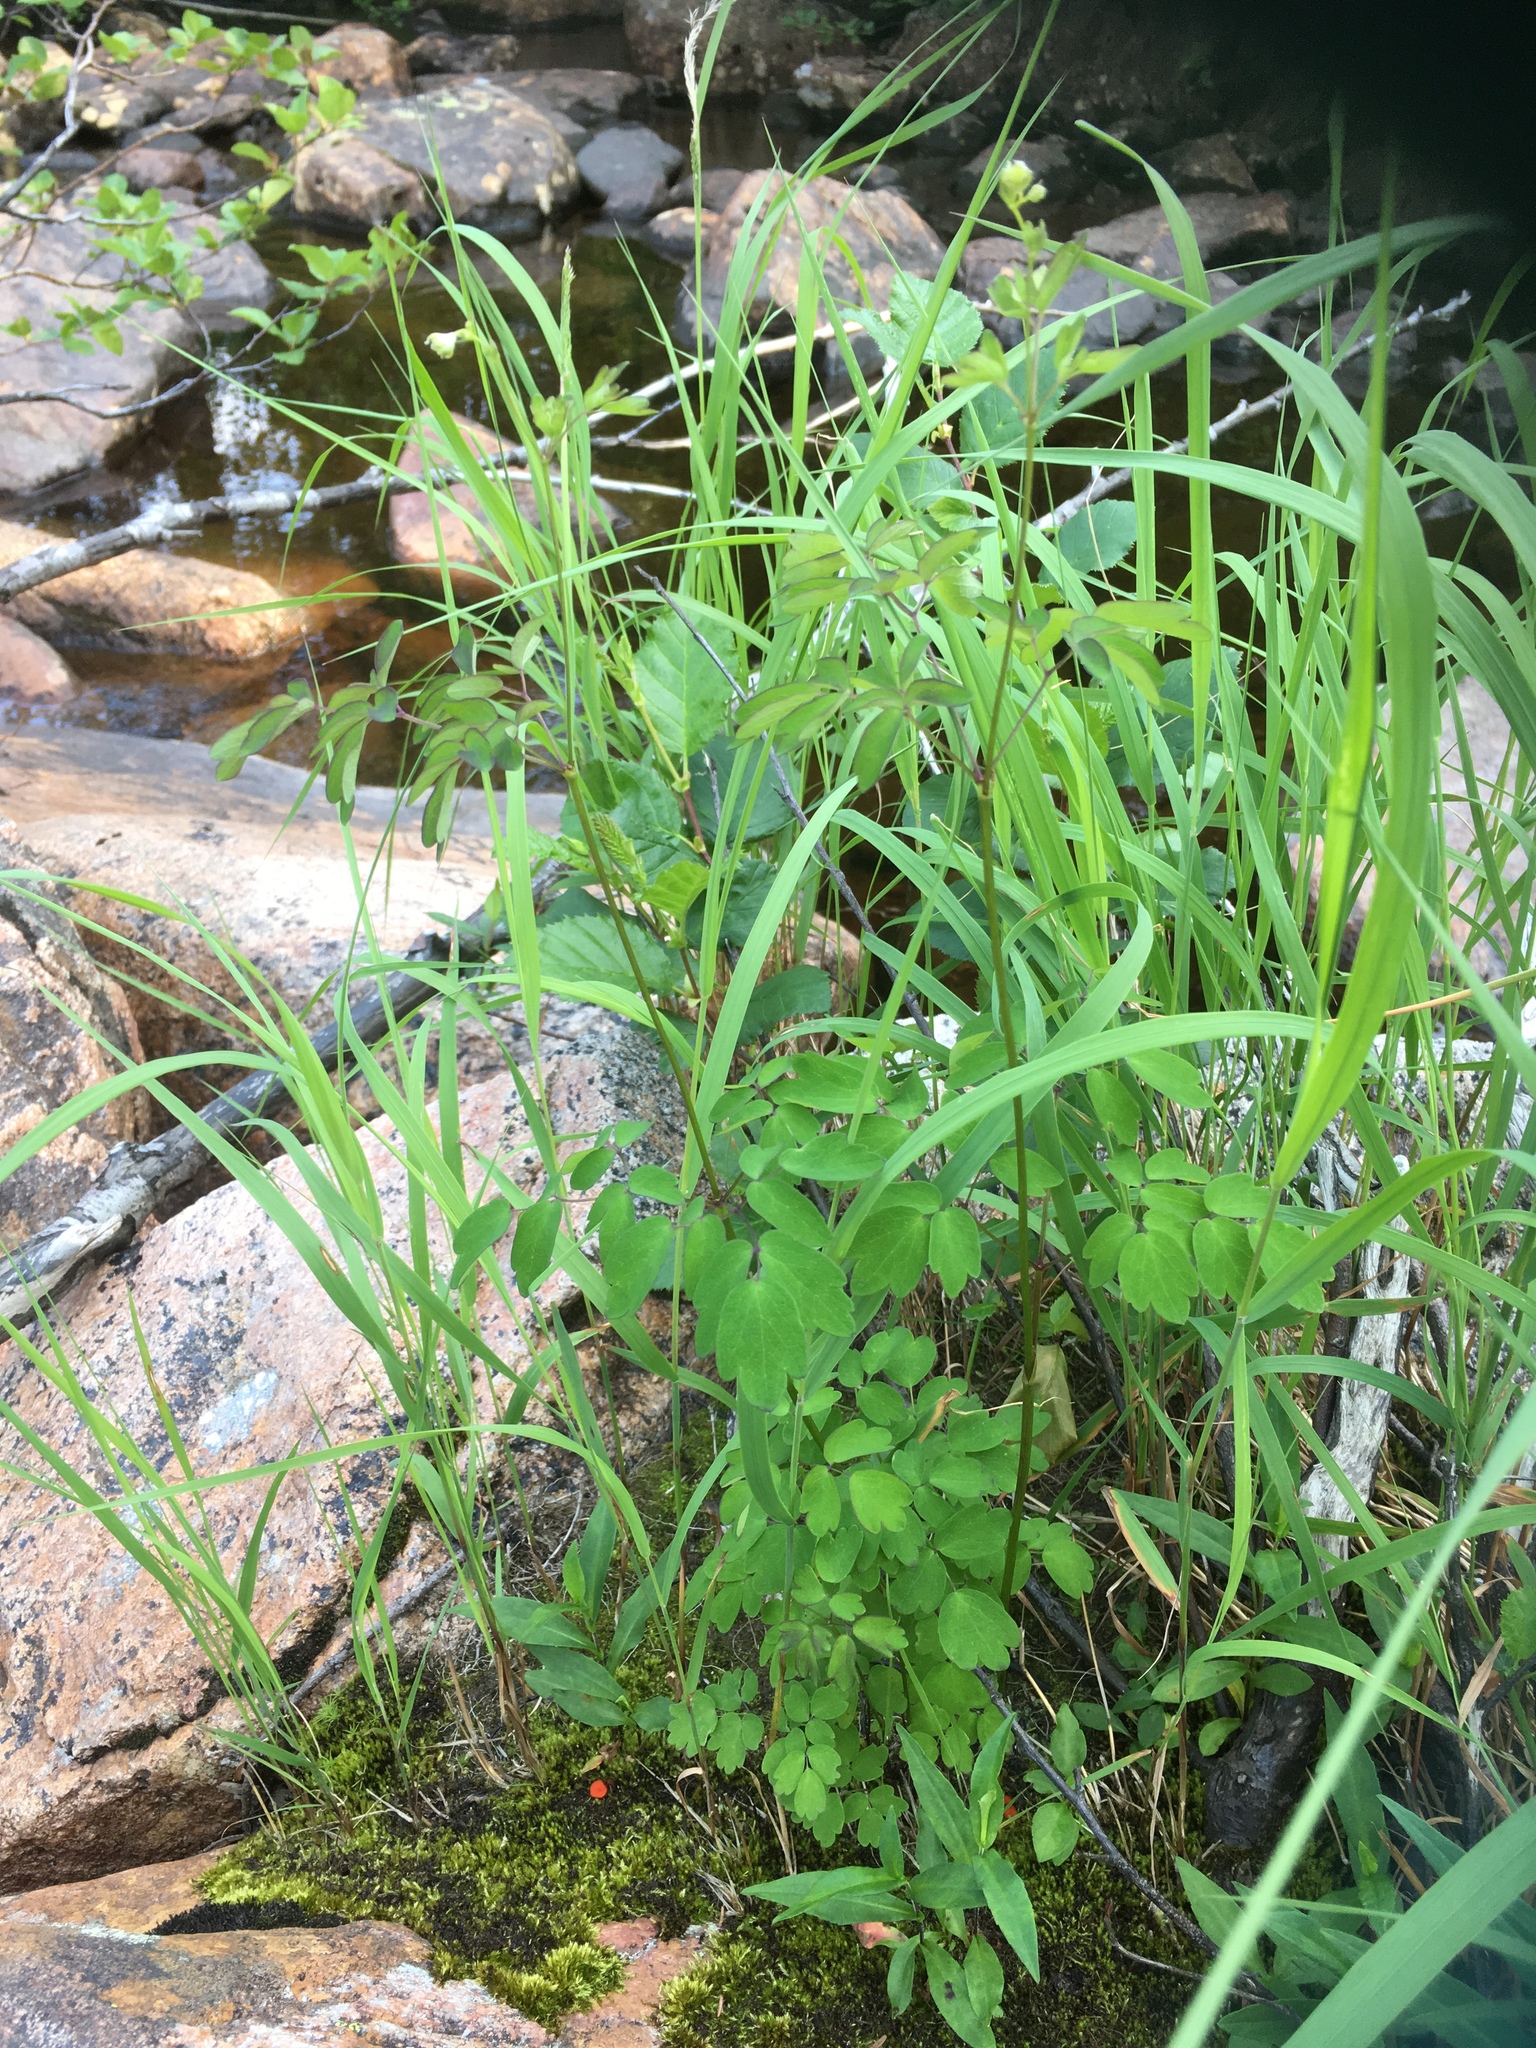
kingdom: Plantae
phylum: Tracheophyta
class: Magnoliopsida
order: Ranunculales
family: Ranunculaceae
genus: Thalictrum
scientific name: Thalictrum pubescens
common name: King-of-the-meadow
